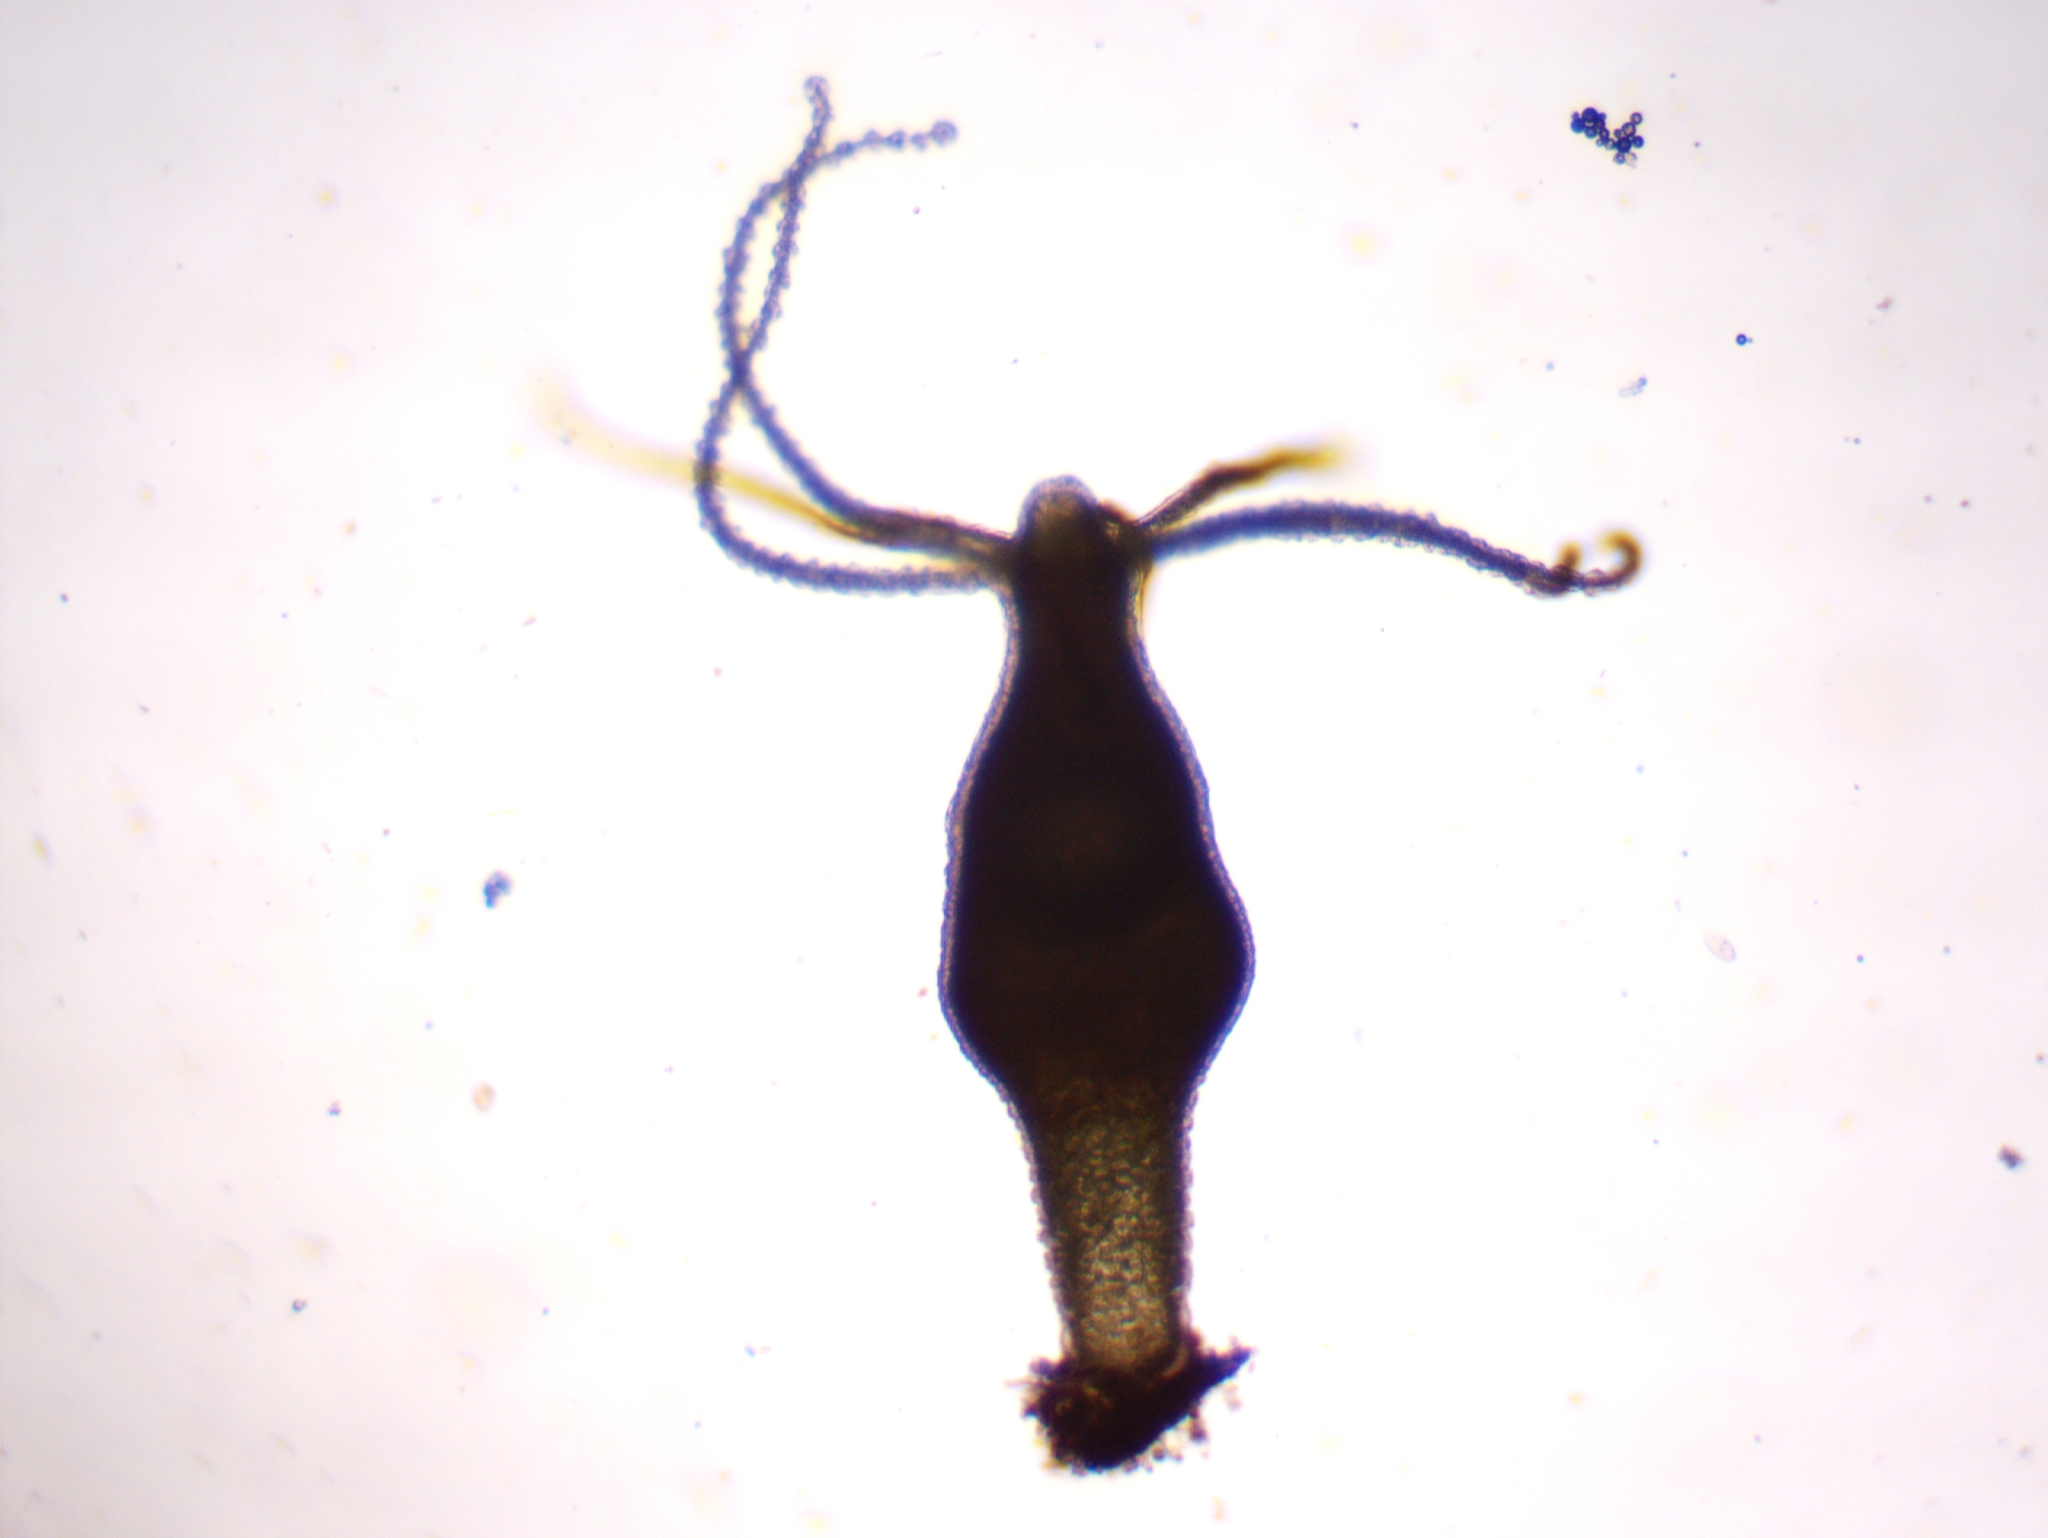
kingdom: Animalia
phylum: Cnidaria
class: Hydrozoa
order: Anthoathecata
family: Hydridae
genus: Hydra
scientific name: Hydra viridissima
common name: Green hydra
